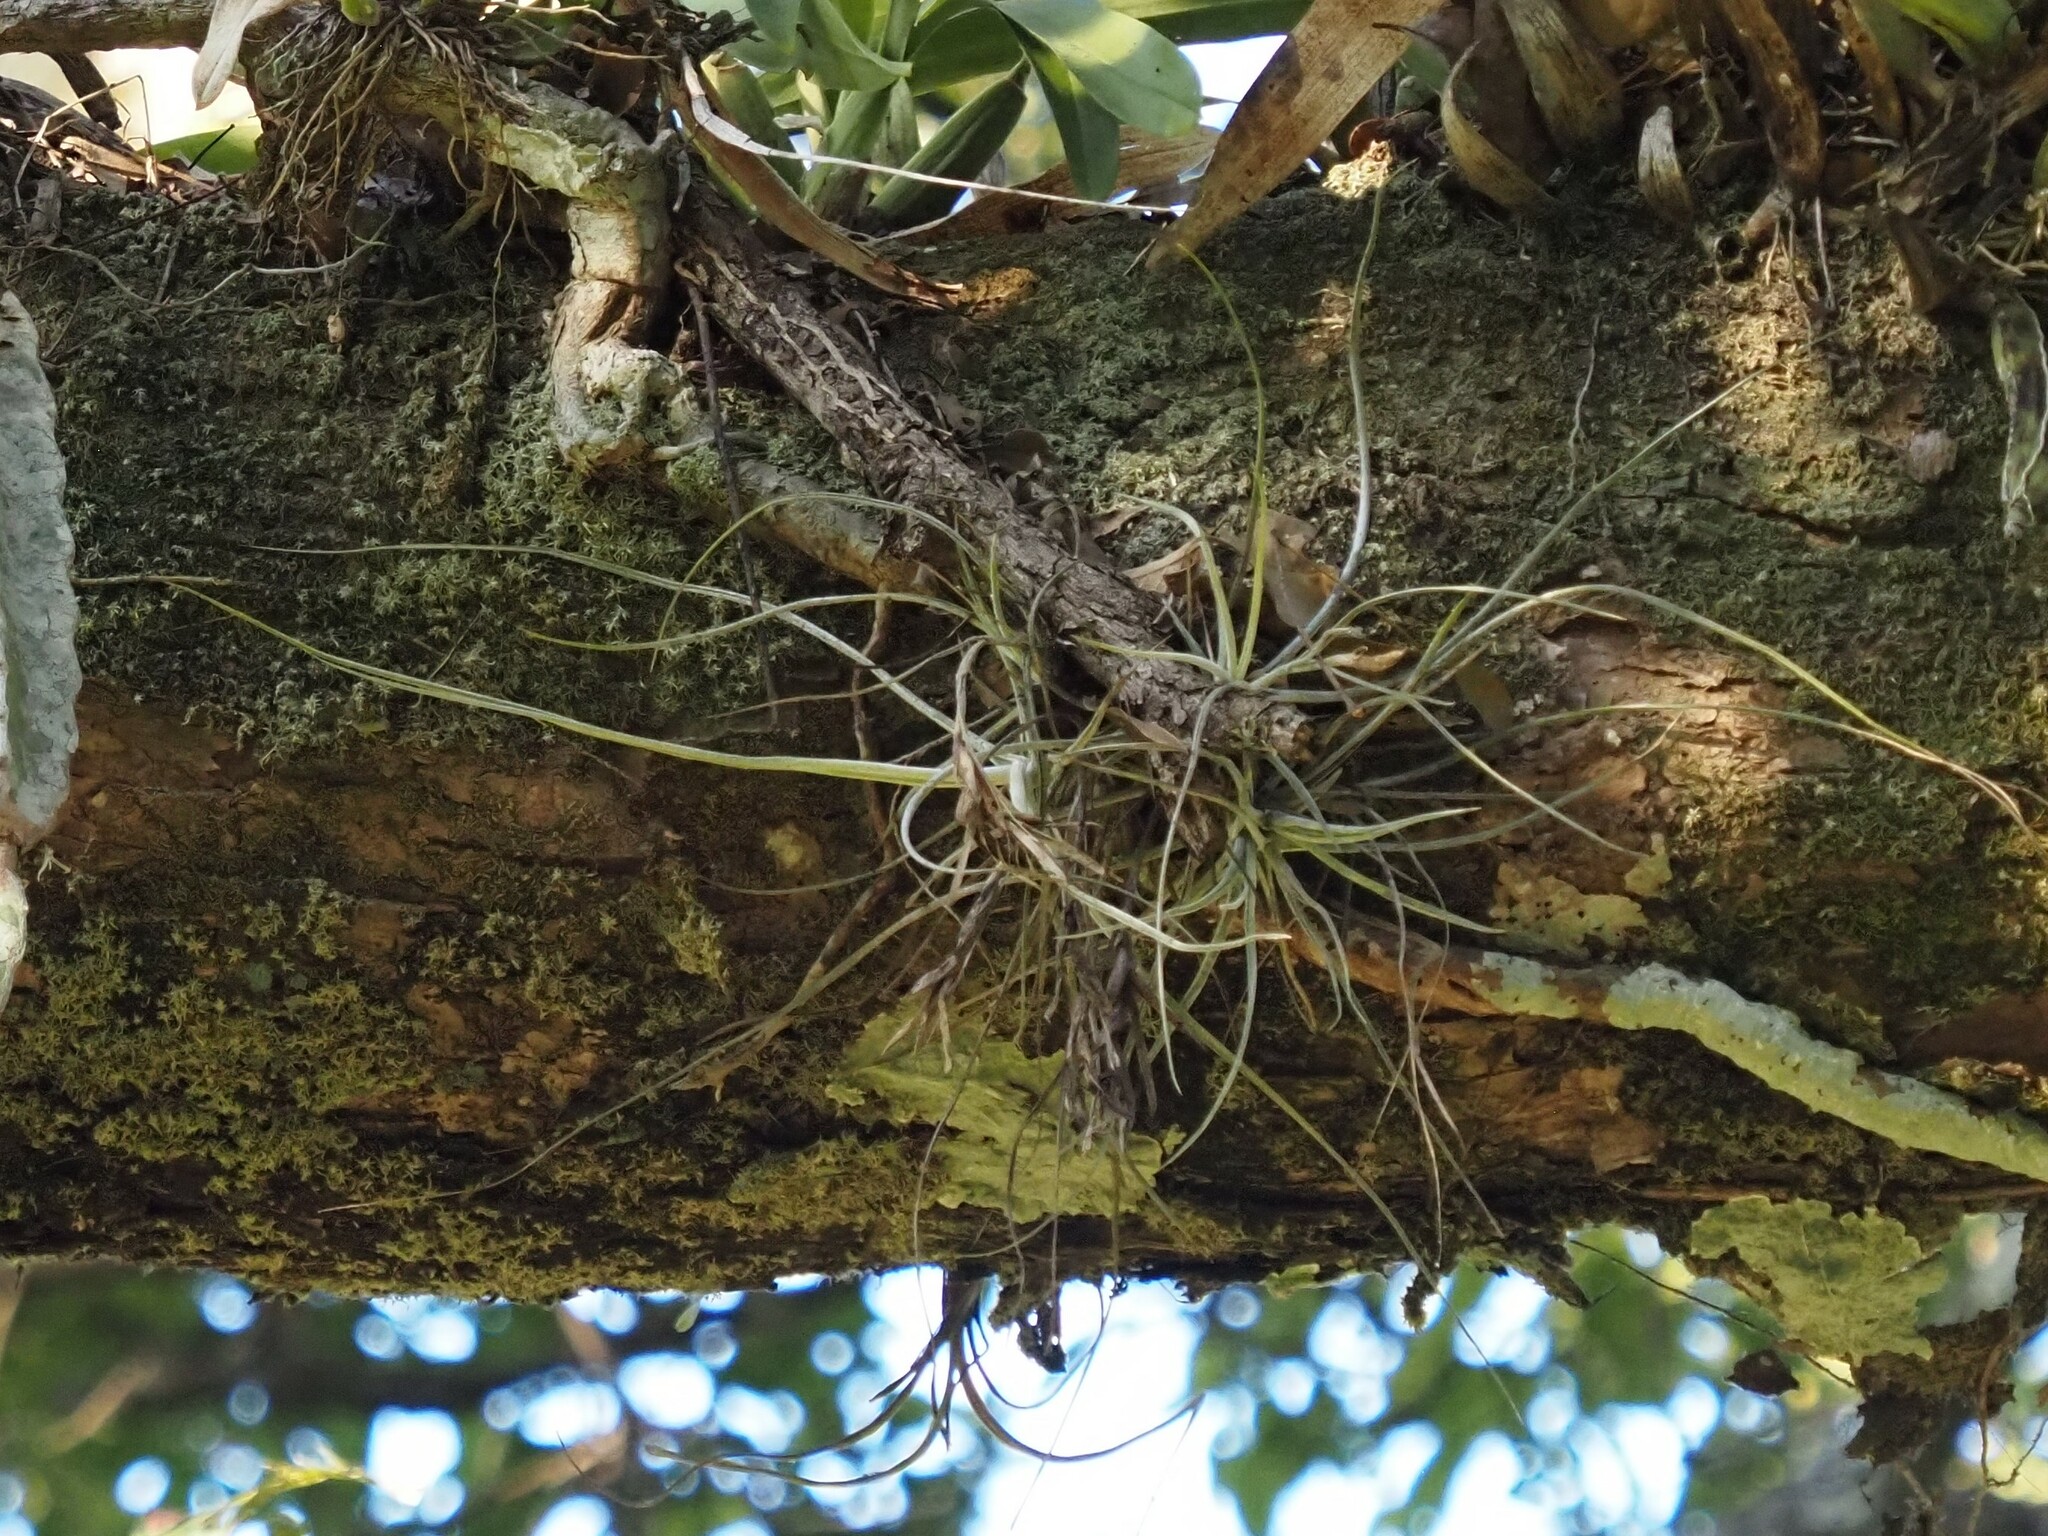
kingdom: Plantae
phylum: Tracheophyta
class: Liliopsida
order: Poales
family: Bromeliaceae
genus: Tillandsia
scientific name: Tillandsia schiedeana
